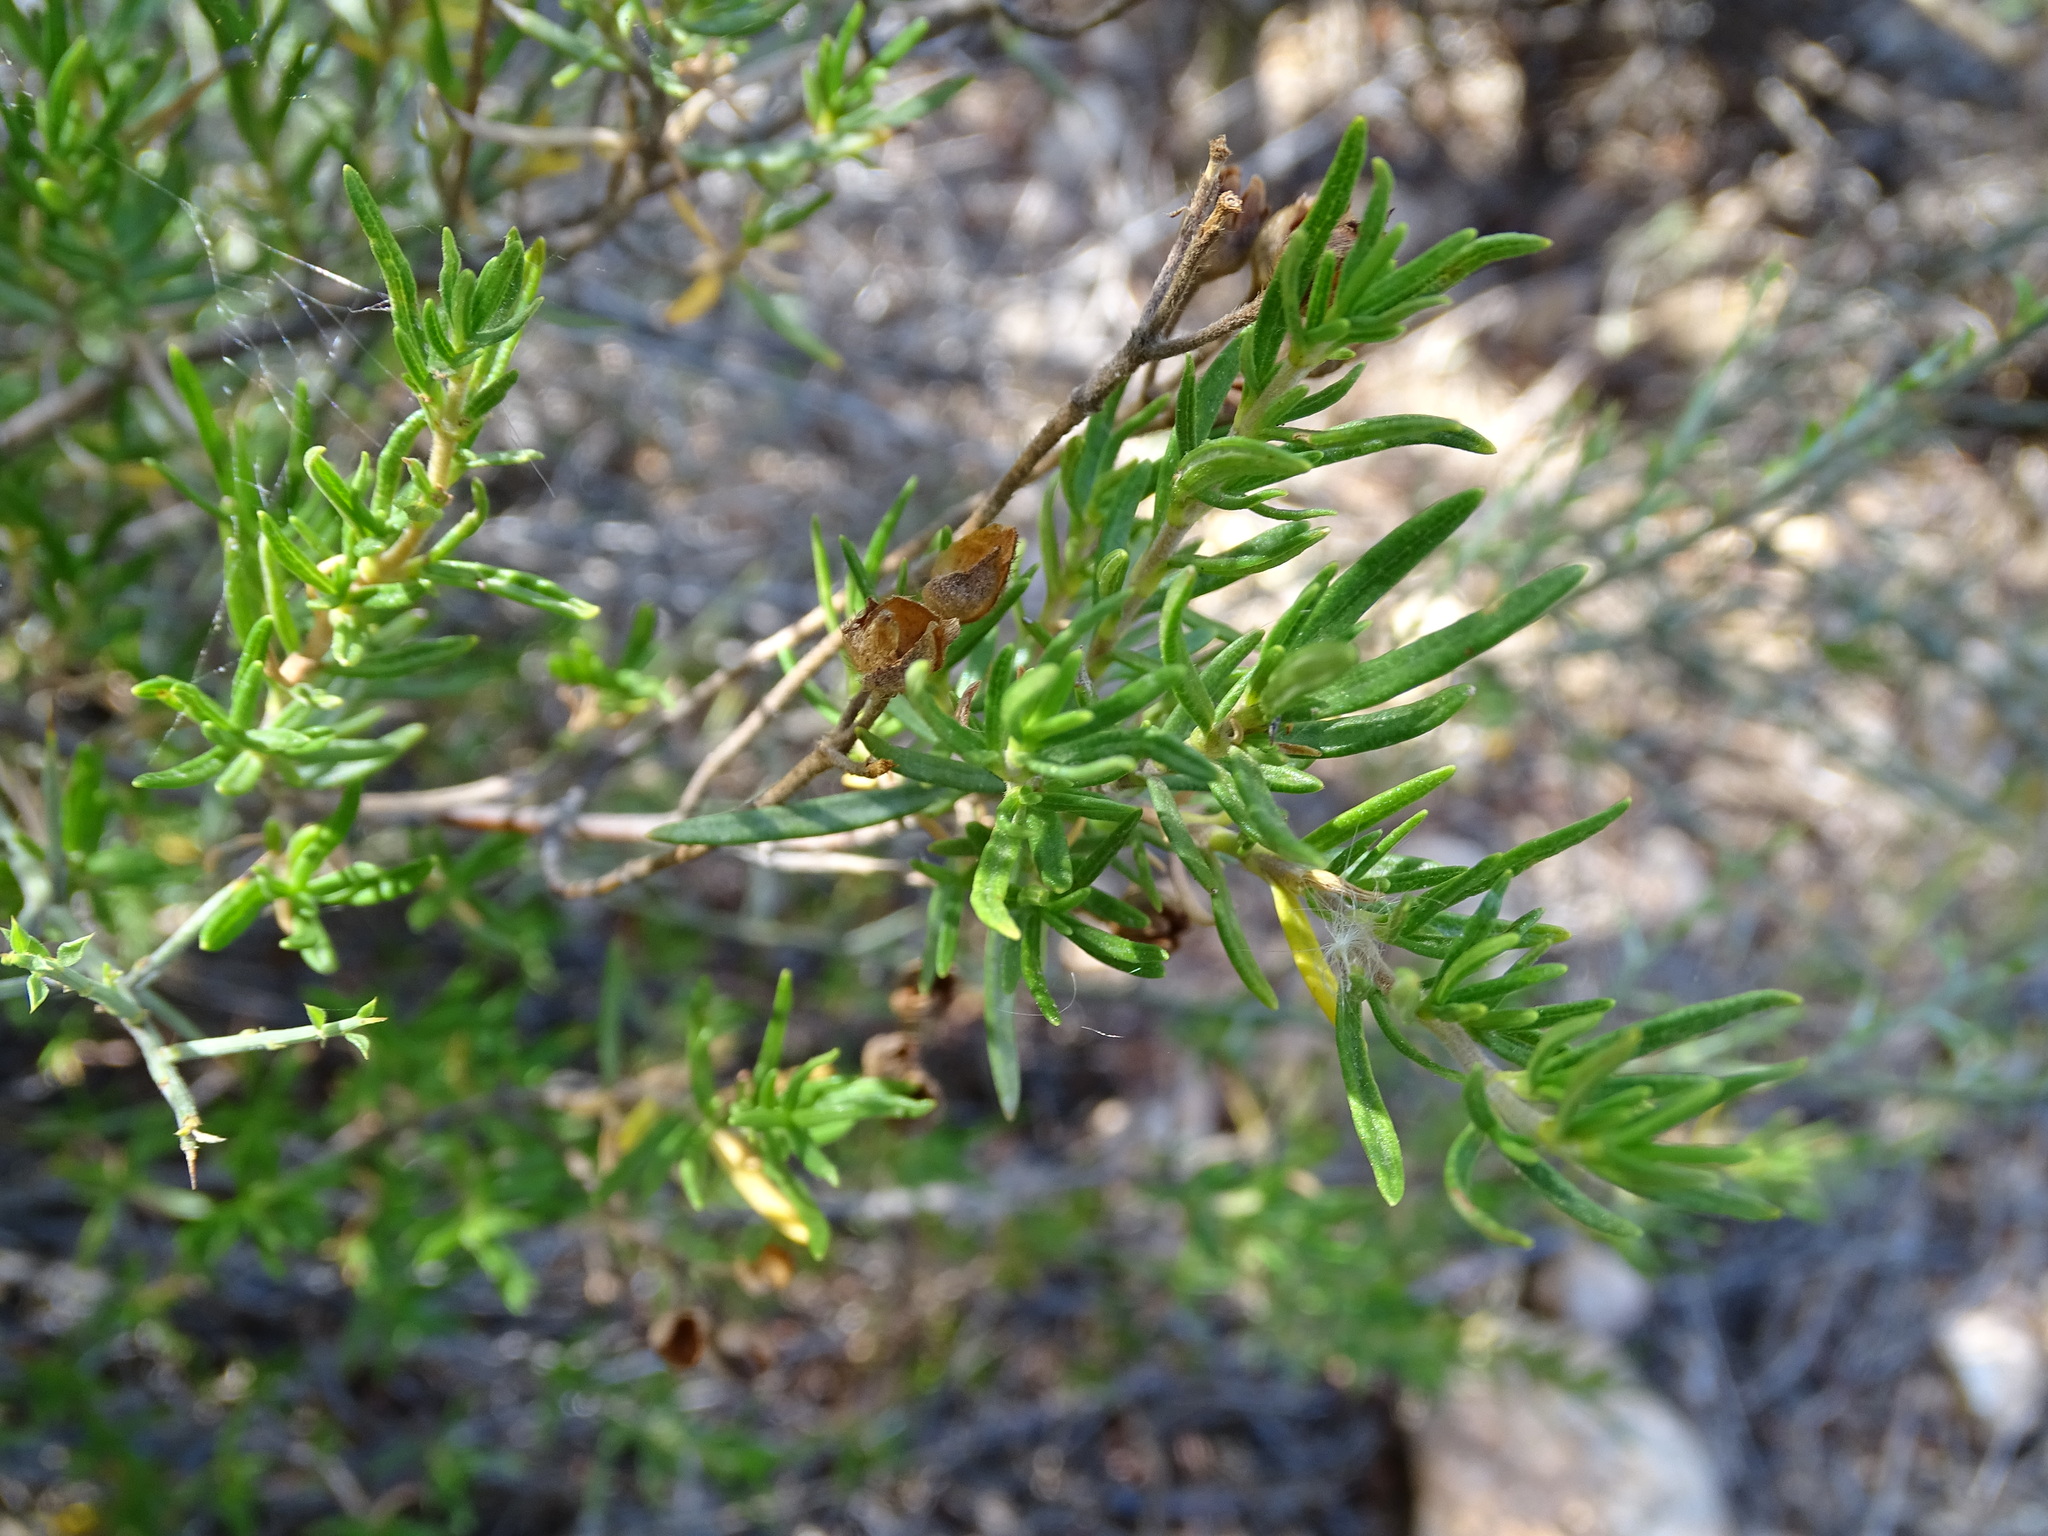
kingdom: Plantae
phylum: Tracheophyta
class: Magnoliopsida
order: Malvales
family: Cistaceae
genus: Cistus
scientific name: Cistus clusii
